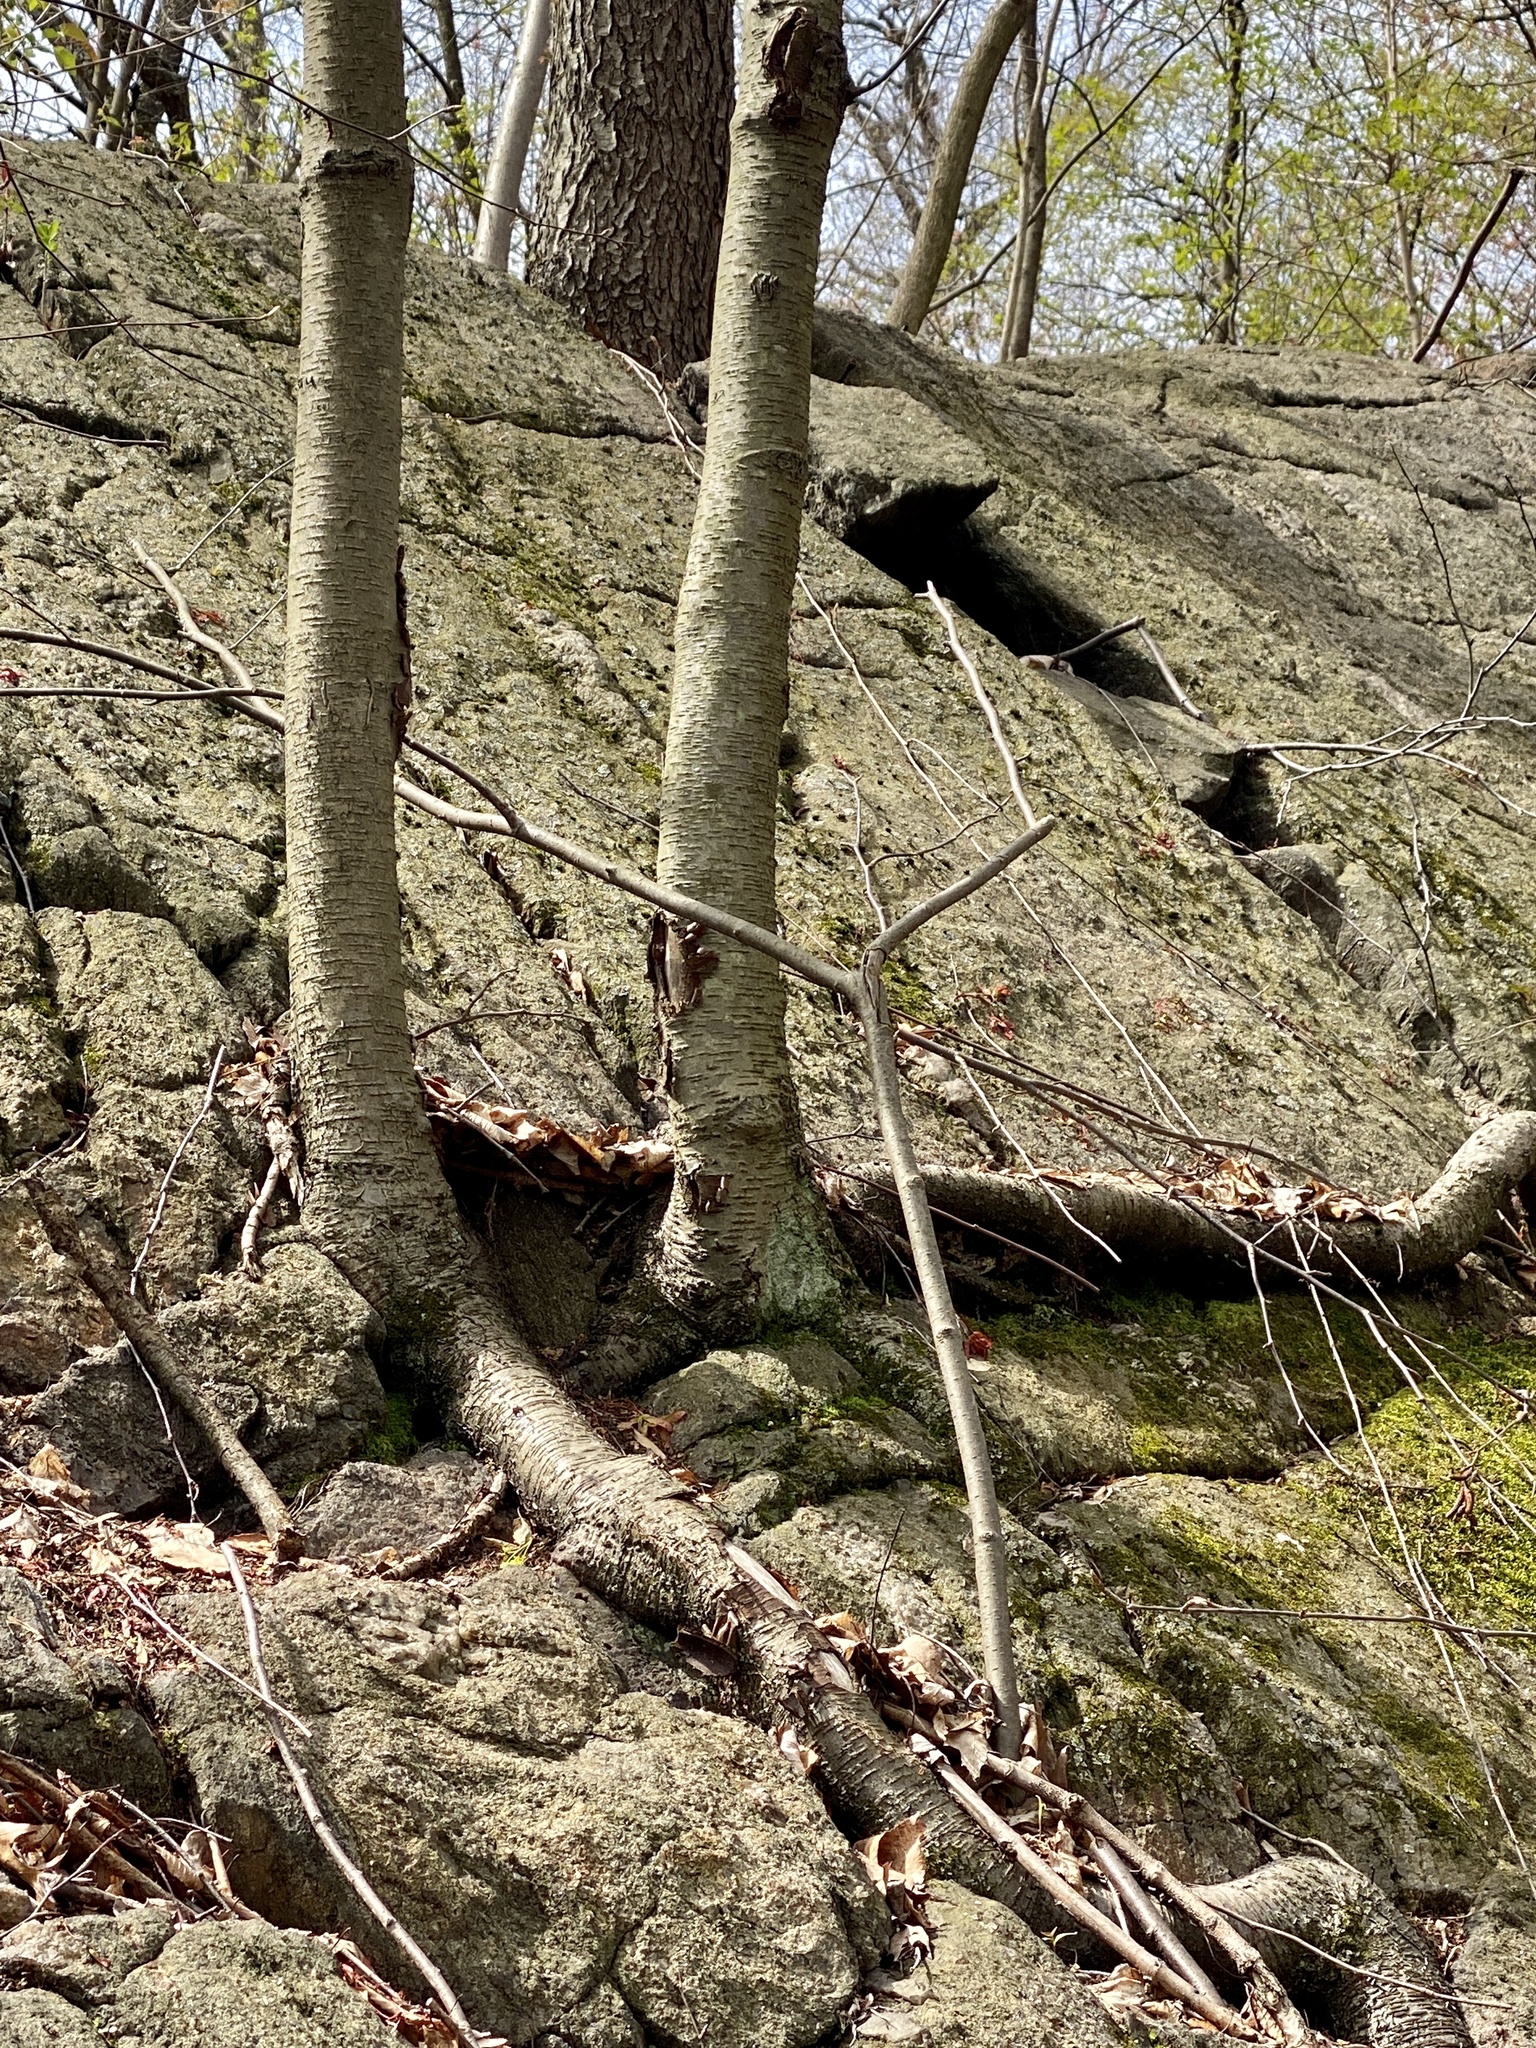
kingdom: Plantae
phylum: Tracheophyta
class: Magnoliopsida
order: Fagales
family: Betulaceae
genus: Betula
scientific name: Betula lenta
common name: Black birch
